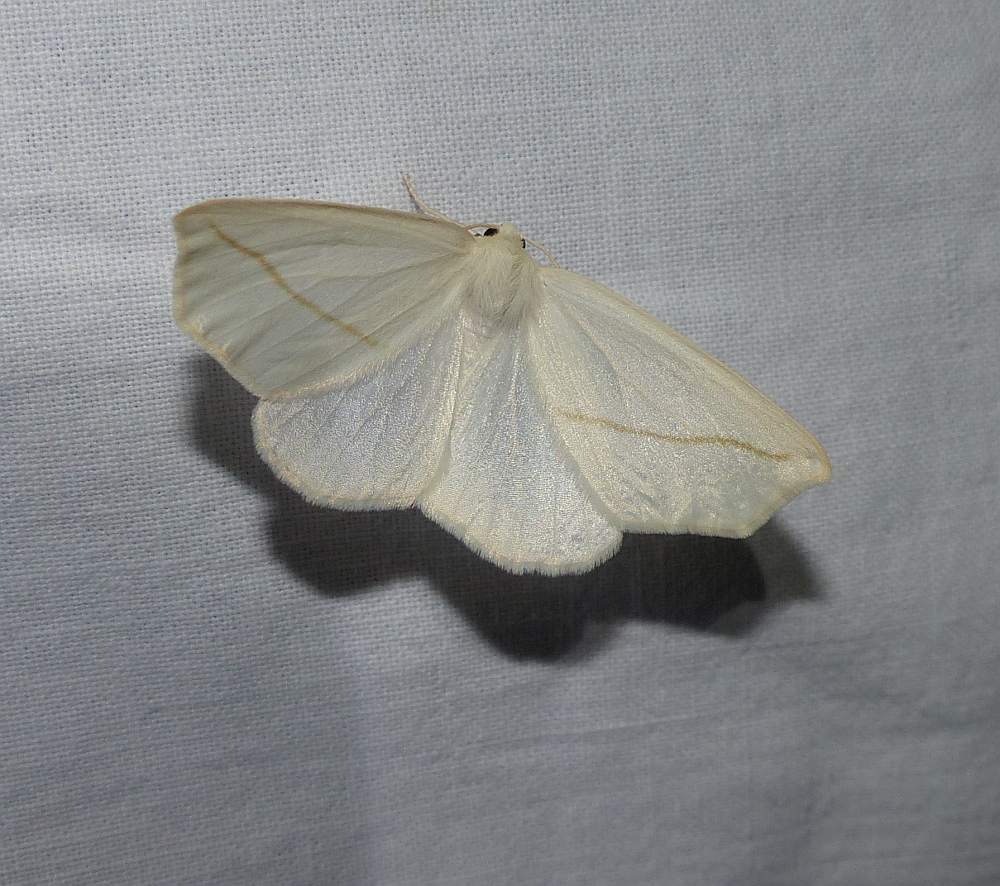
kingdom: Animalia
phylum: Arthropoda
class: Insecta
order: Lepidoptera
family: Geometridae
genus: Tetracis
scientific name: Tetracis cachexiata
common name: White slant-line
